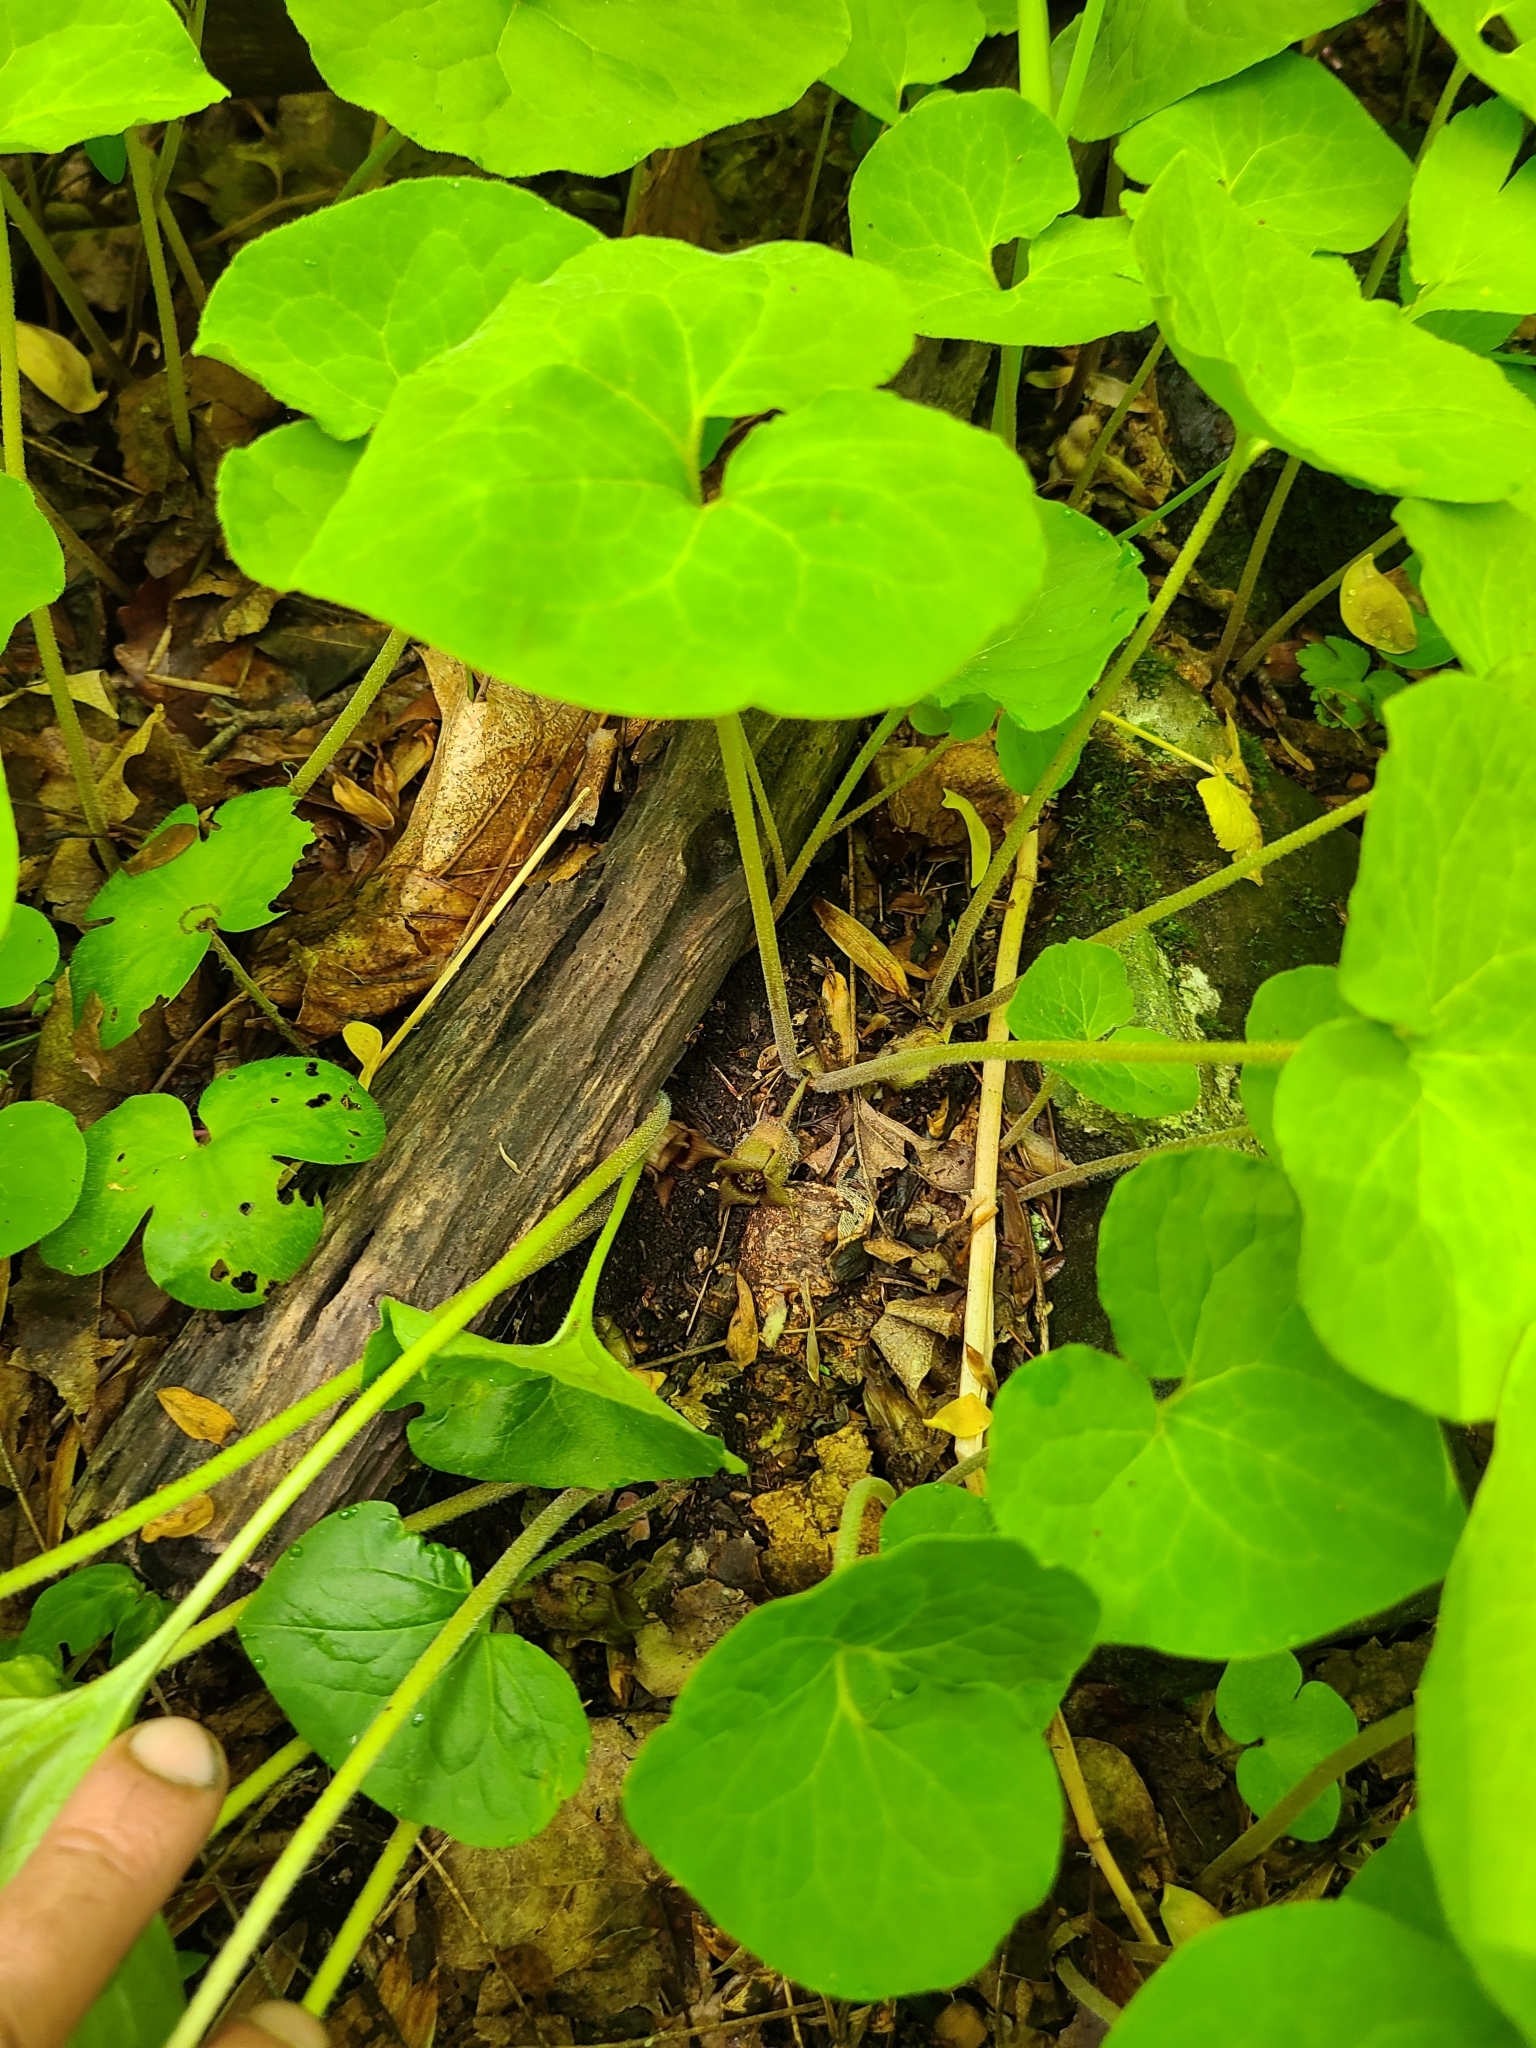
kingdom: Plantae
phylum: Tracheophyta
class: Magnoliopsida
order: Piperales
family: Aristolochiaceae
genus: Asarum
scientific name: Asarum canadense
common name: Wild ginger
